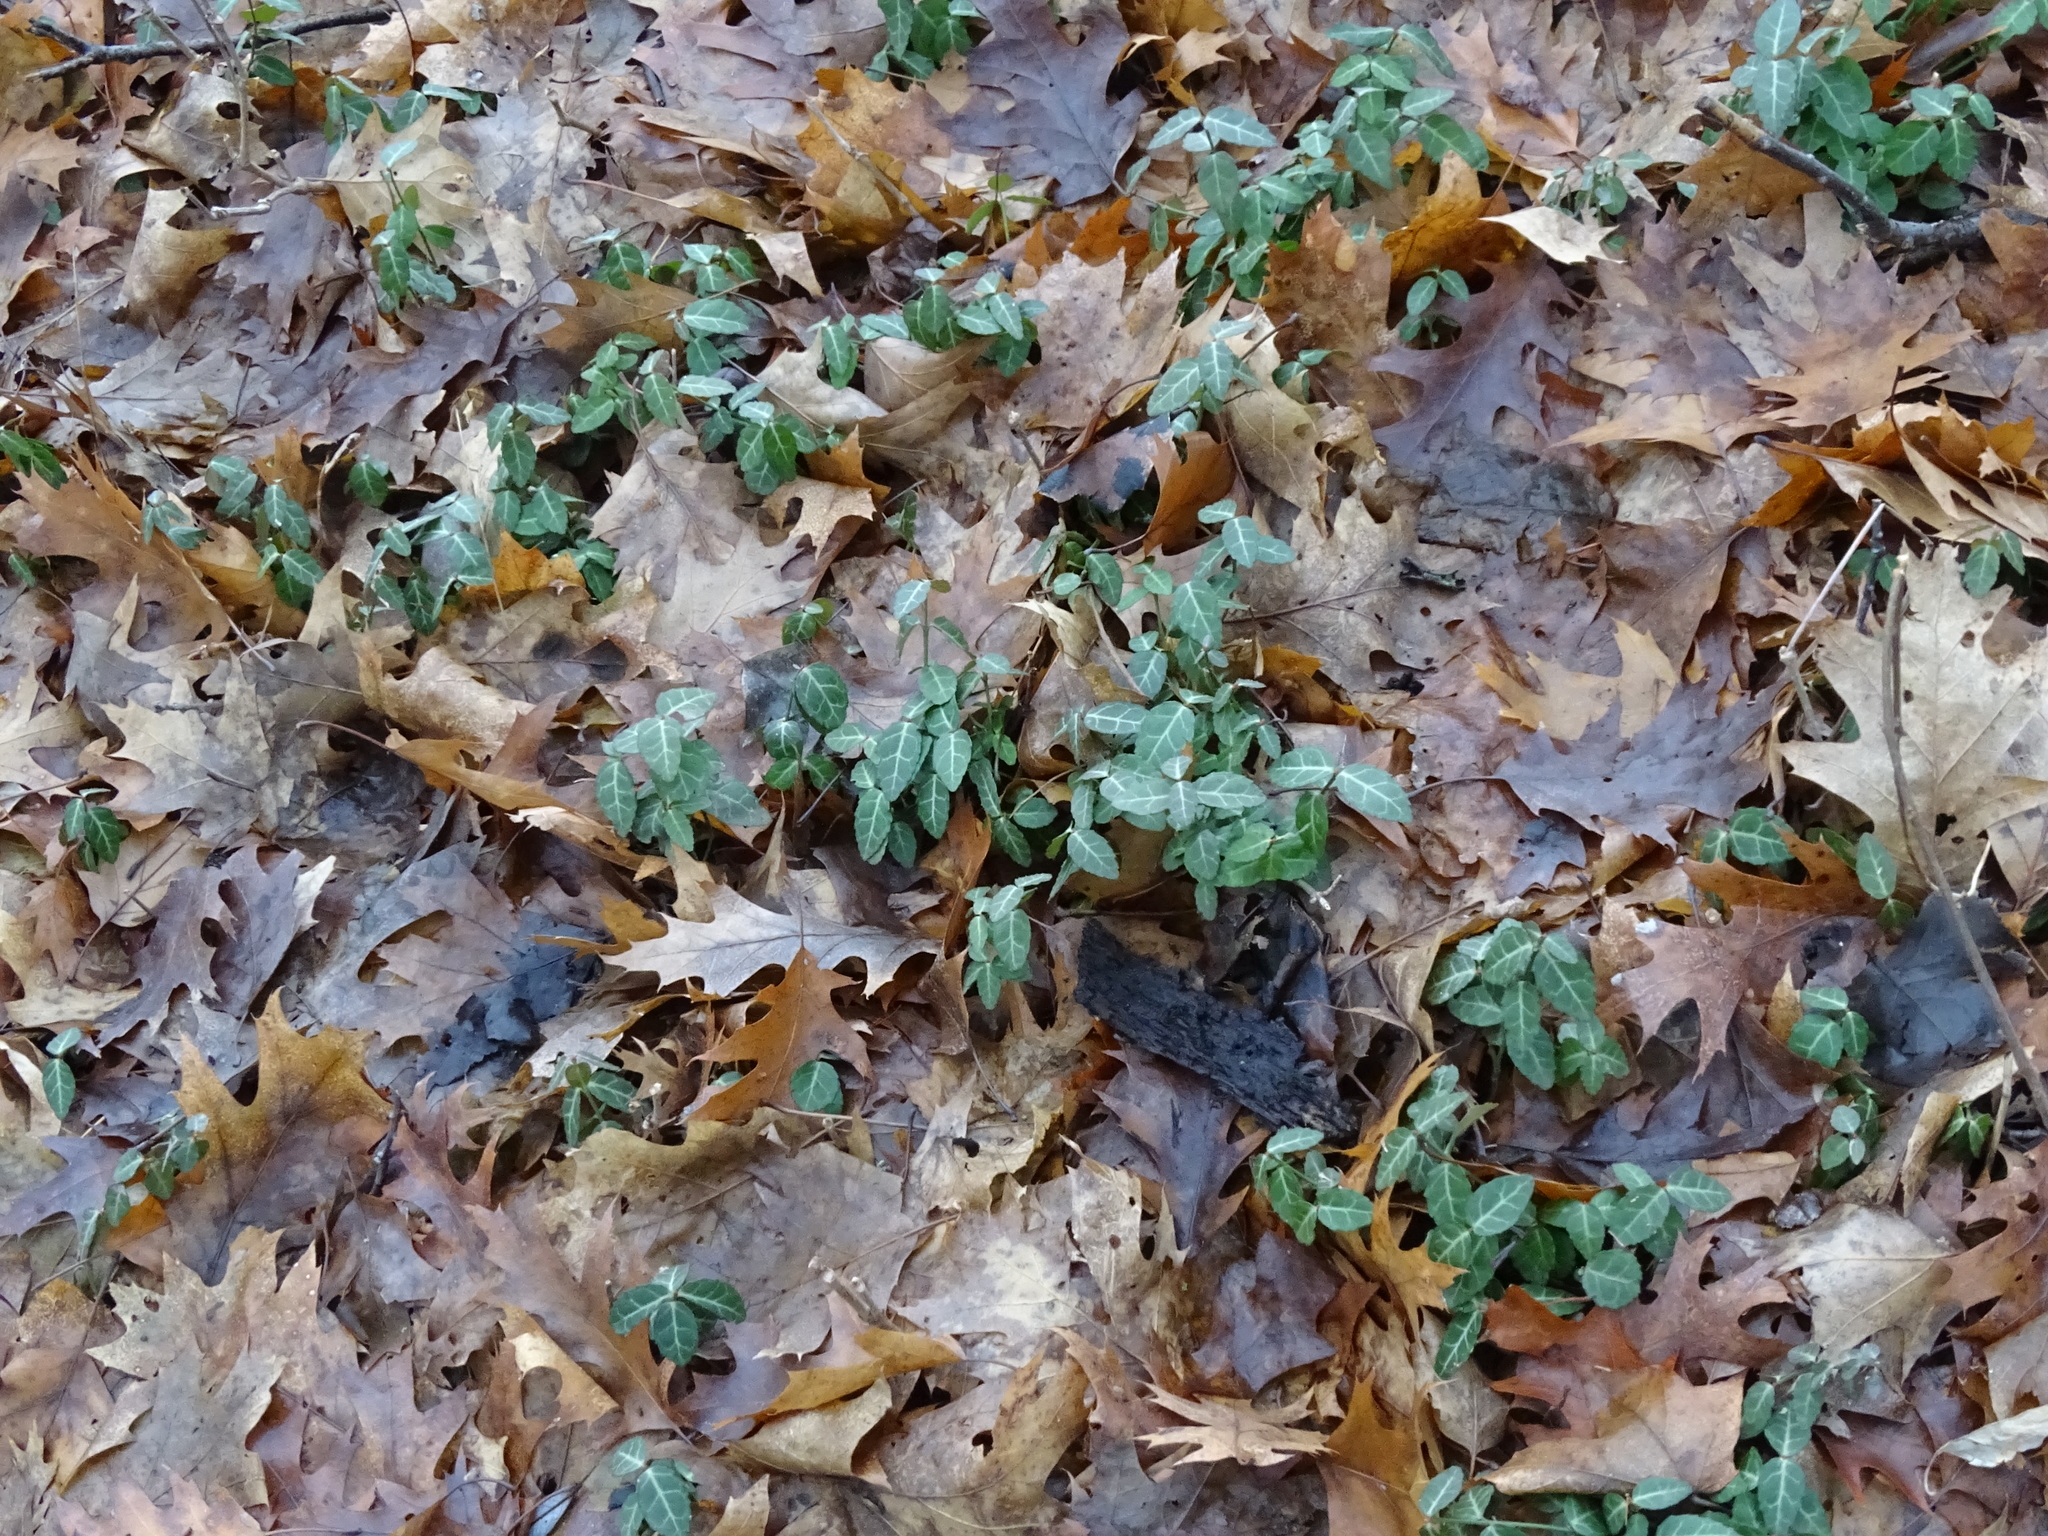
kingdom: Plantae
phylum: Tracheophyta
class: Magnoliopsida
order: Celastrales
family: Celastraceae
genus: Euonymus
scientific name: Euonymus fortunei
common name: Climbing euonymus
